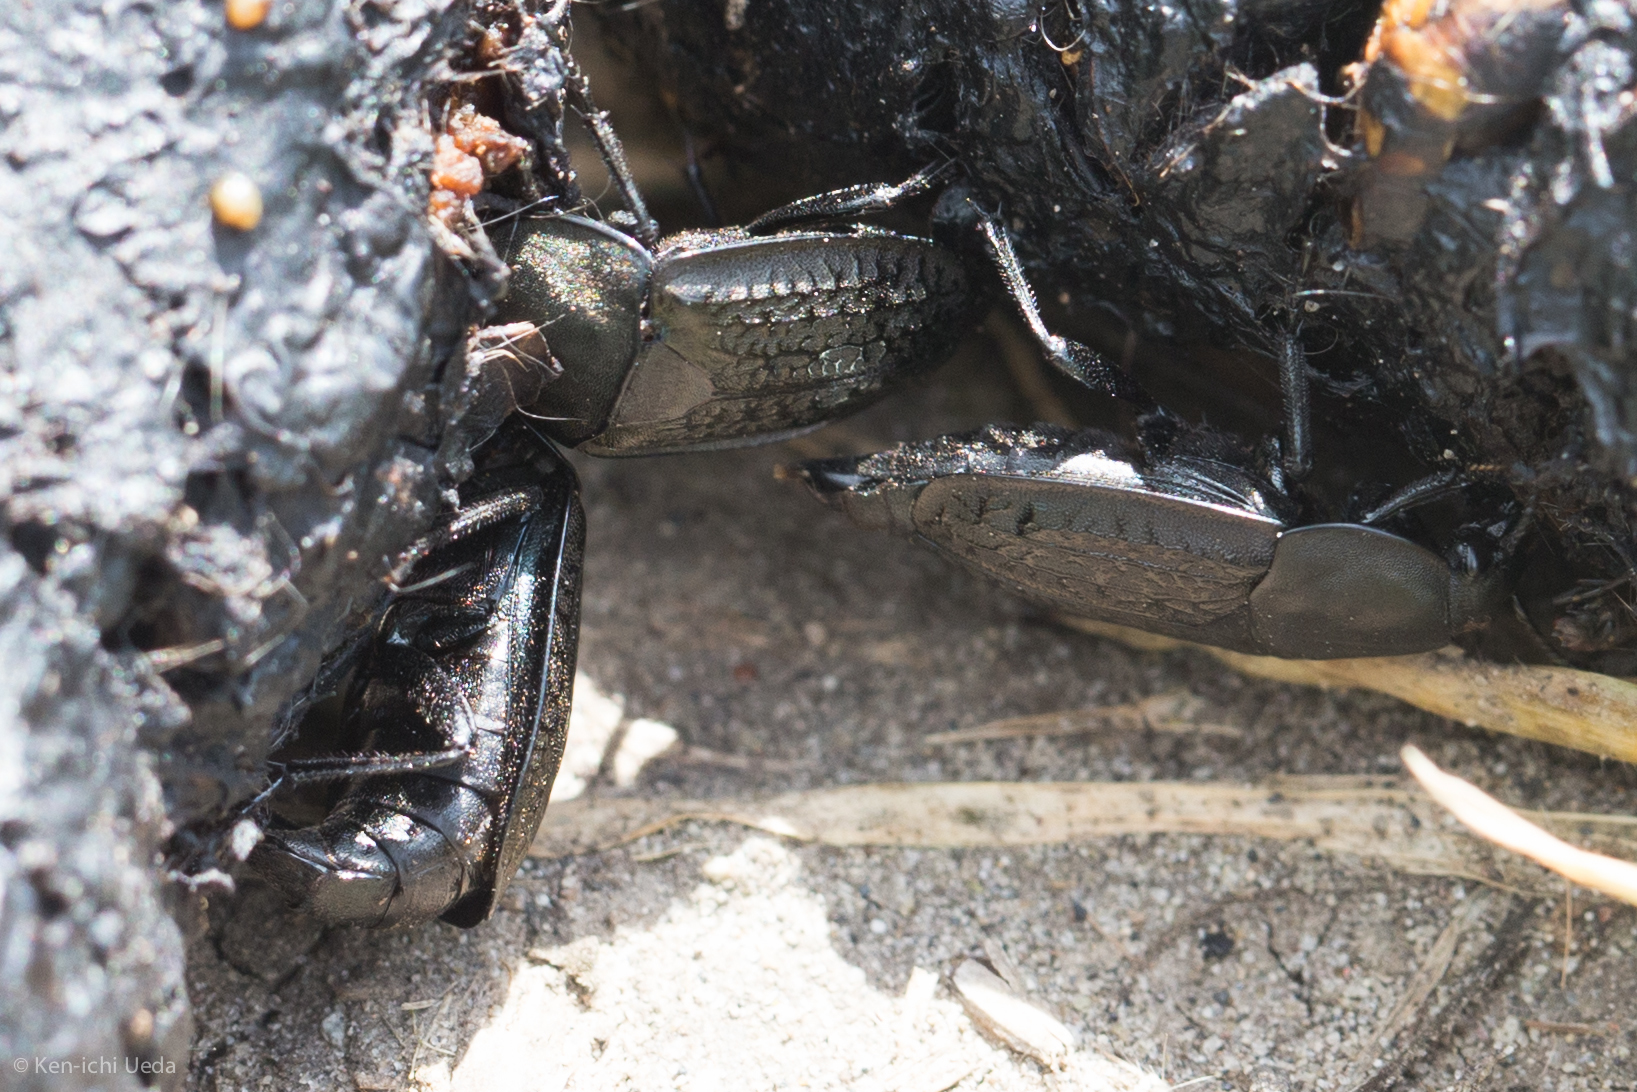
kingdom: Animalia
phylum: Arthropoda
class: Insecta
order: Coleoptera
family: Staphylinidae
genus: Heterosilpha
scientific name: Heterosilpha ramosa
